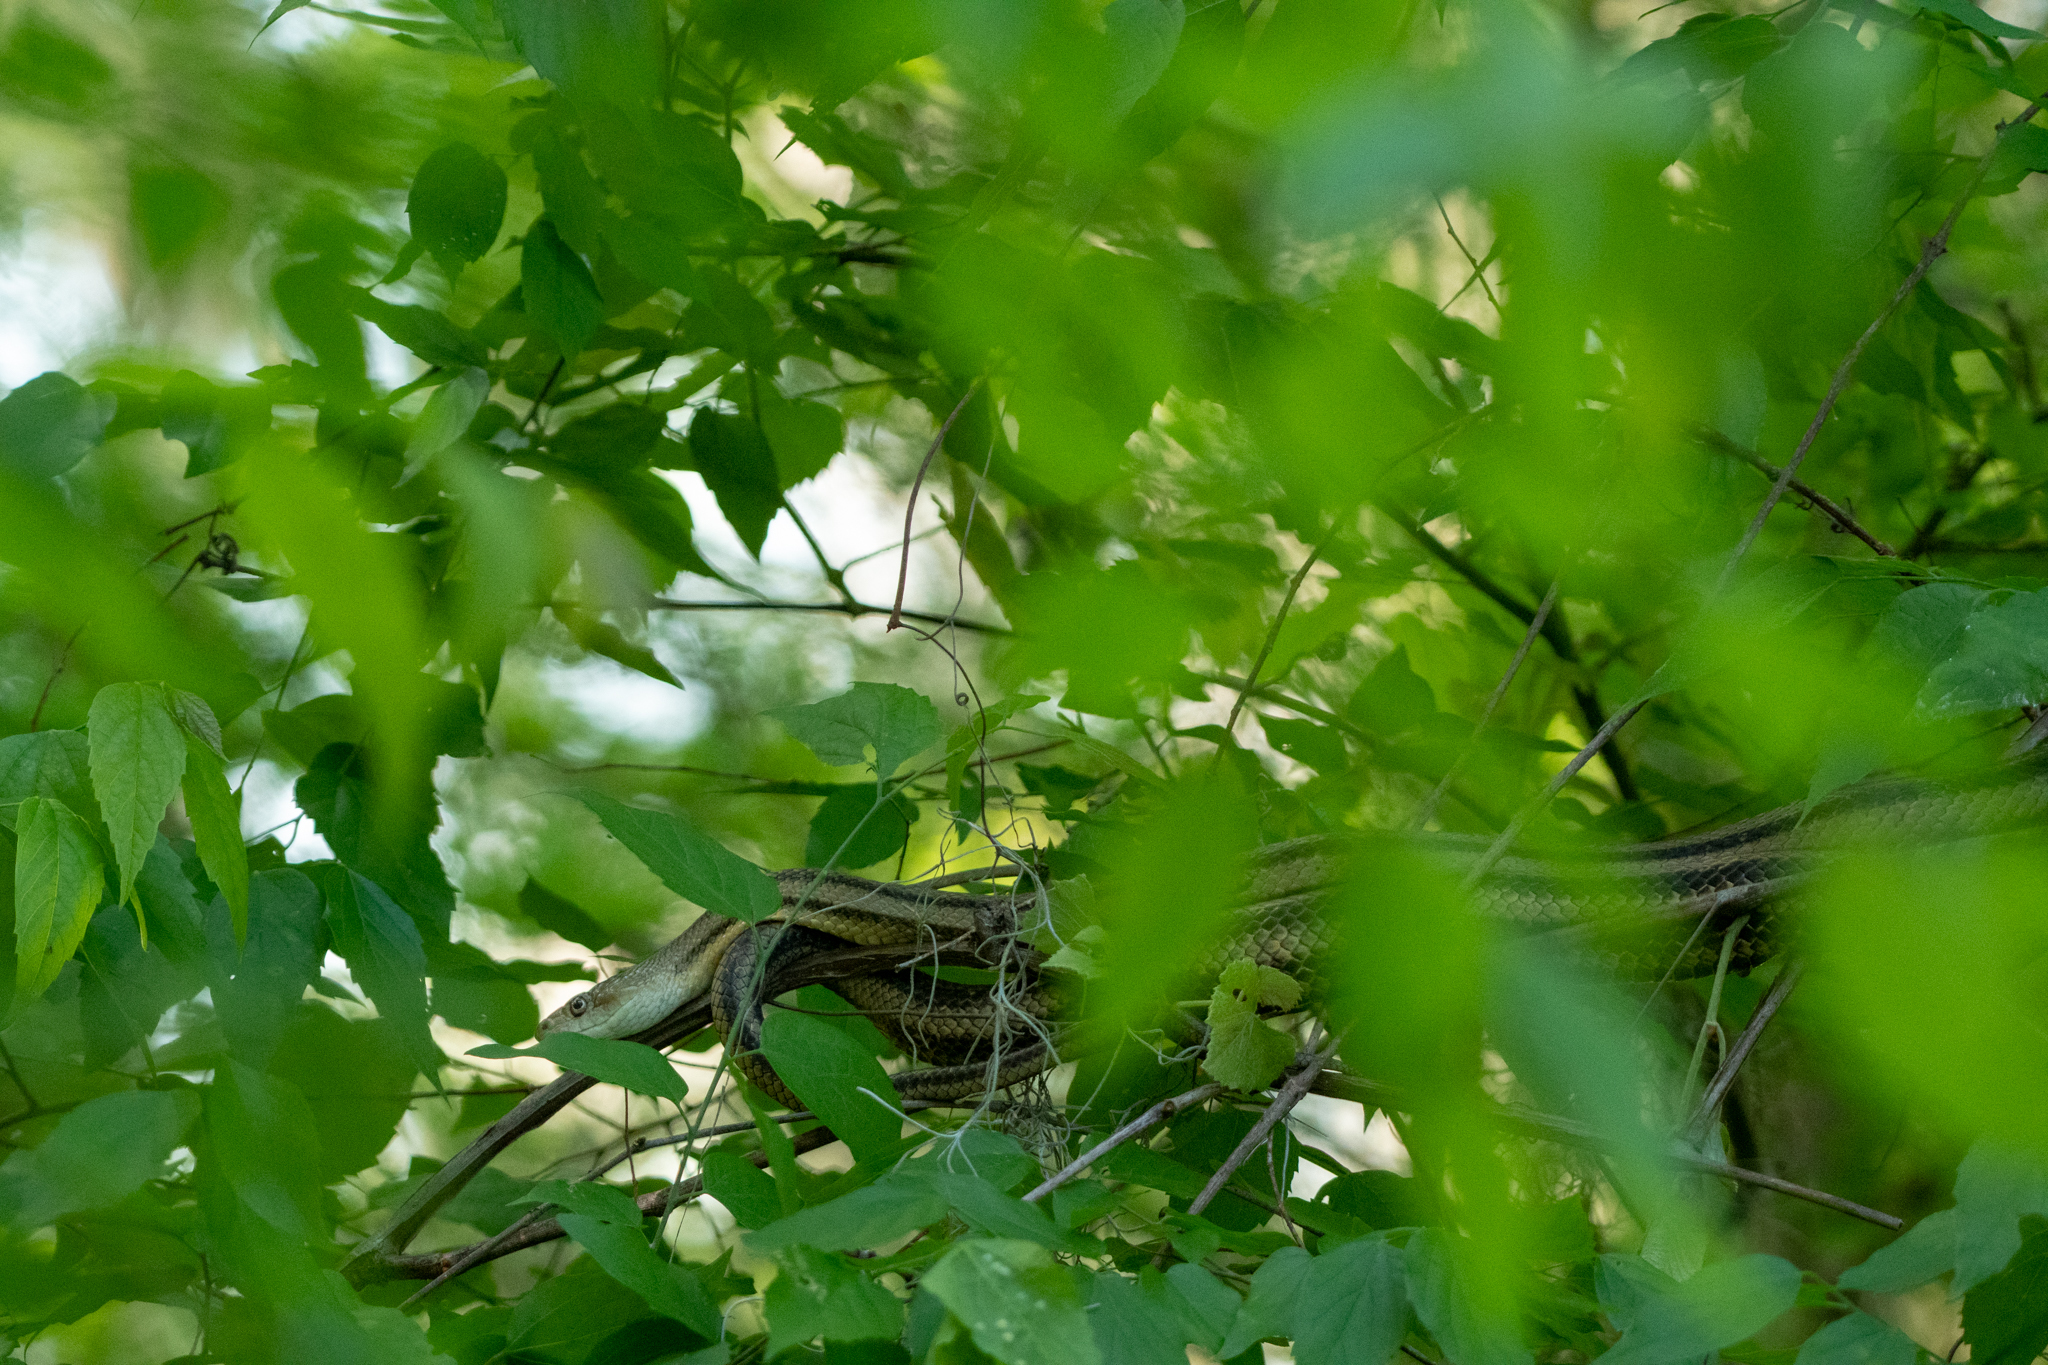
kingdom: Animalia
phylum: Chordata
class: Squamata
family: Colubridae
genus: Pantherophis
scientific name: Pantherophis alleghaniensis
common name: Eastern rat snake
